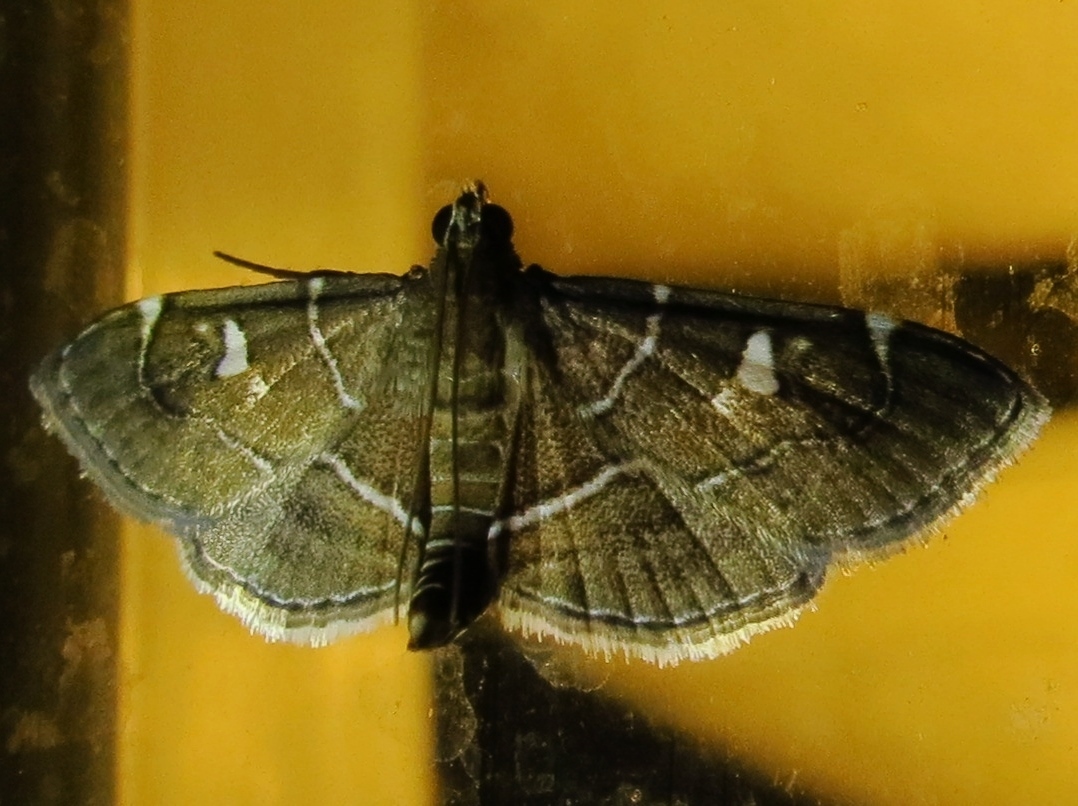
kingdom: Animalia
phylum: Arthropoda
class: Insecta
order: Lepidoptera
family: Crambidae
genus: Lamprosema
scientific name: Lamprosema victoriae
